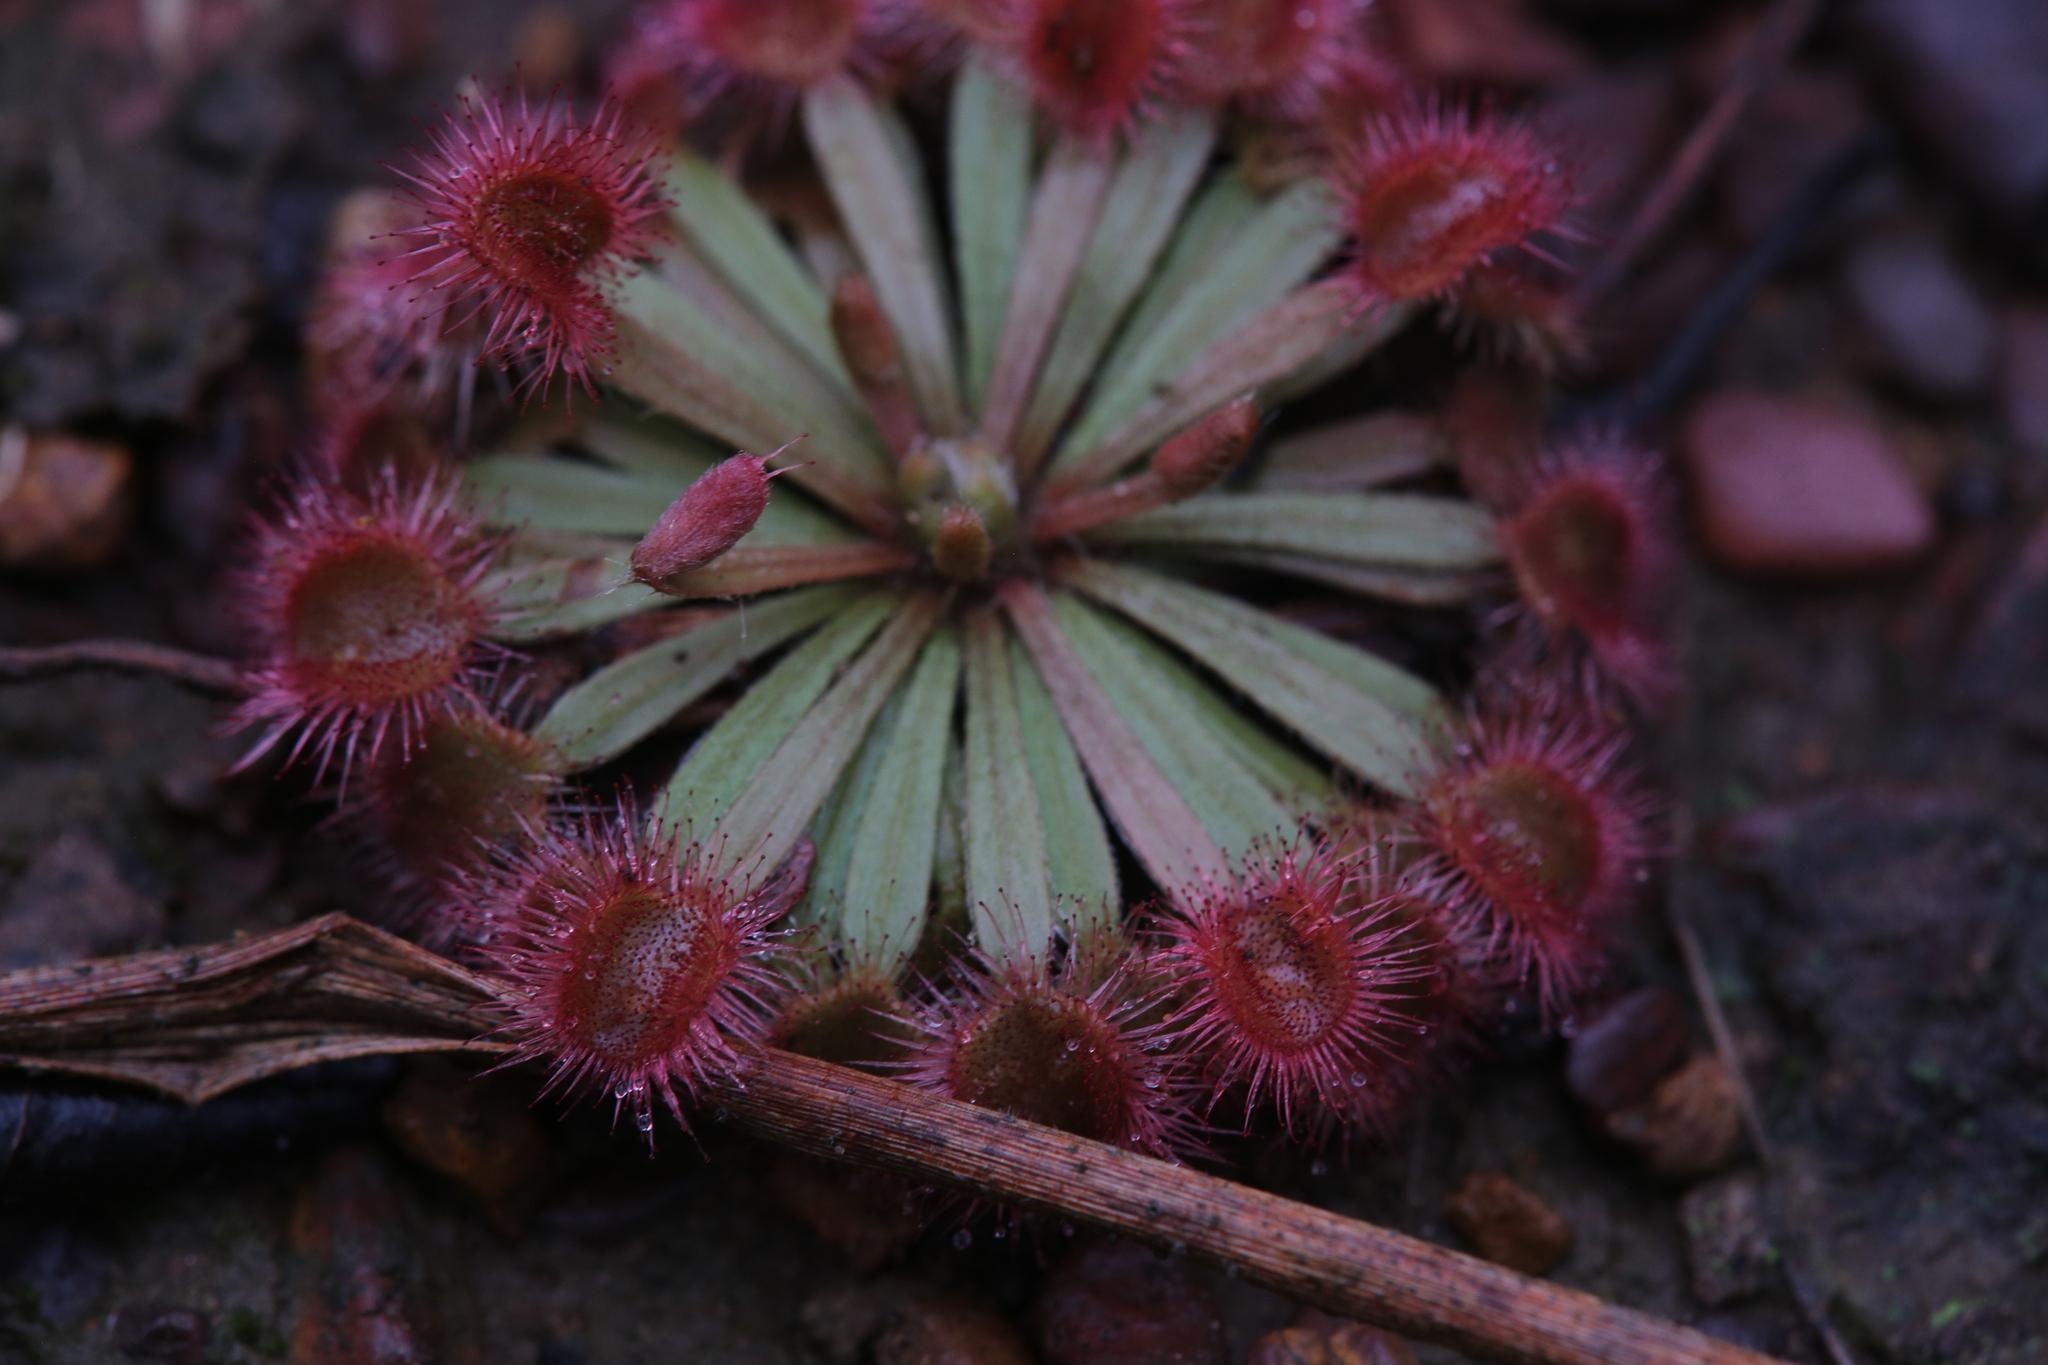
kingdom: Plantae
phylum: Tracheophyta
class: Magnoliopsida
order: Caryophyllales
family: Droseraceae
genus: Drosera
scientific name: Drosera darwinensis
